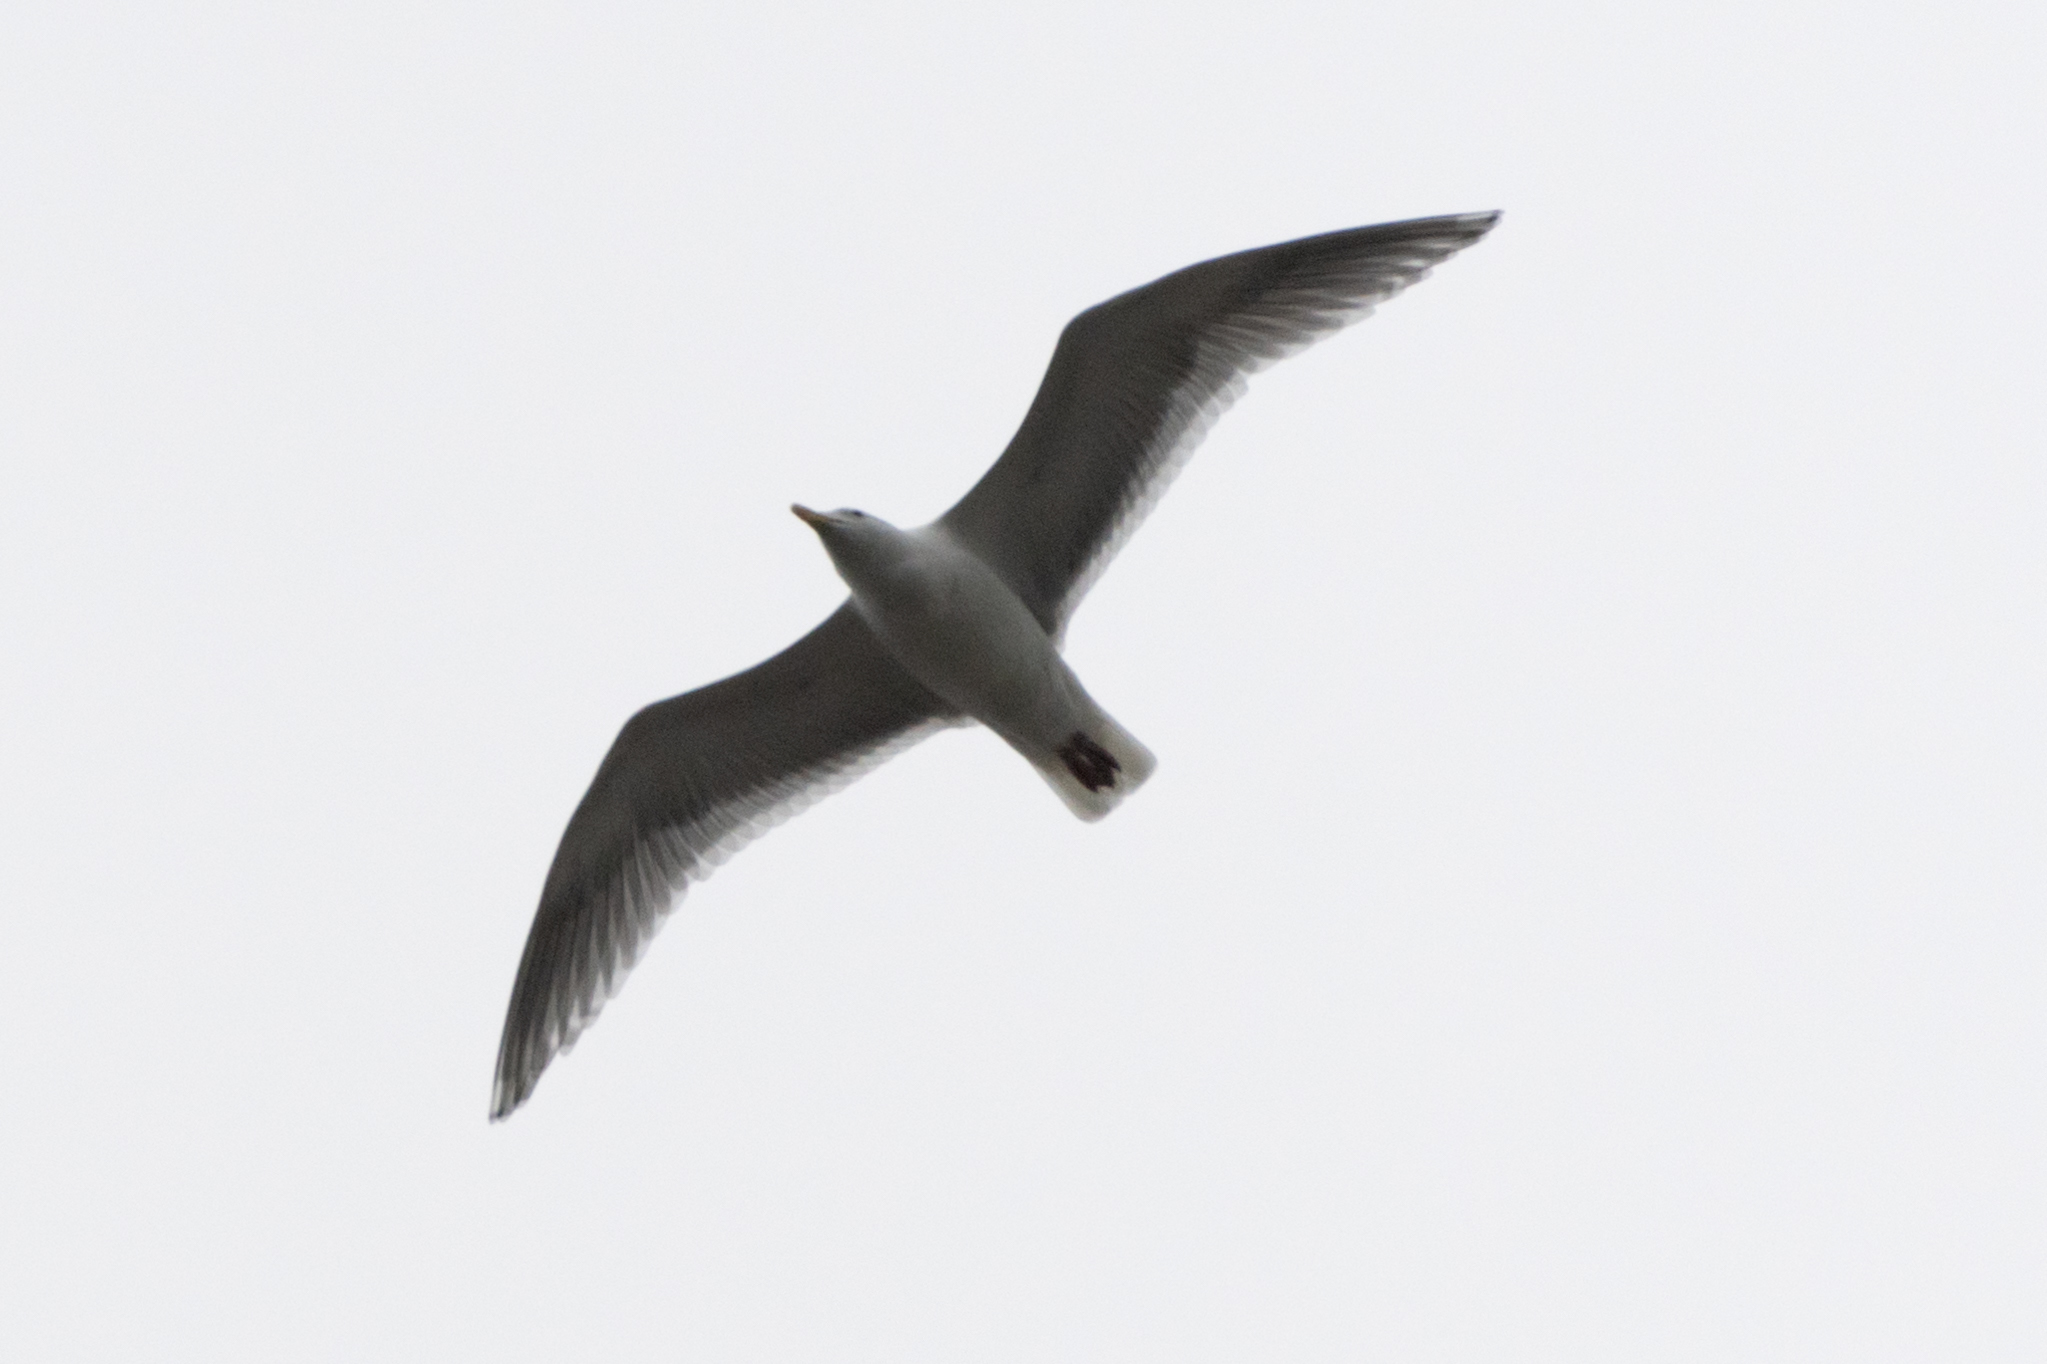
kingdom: Animalia
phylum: Chordata
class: Aves
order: Charadriiformes
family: Laridae
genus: Larus
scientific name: Larus
